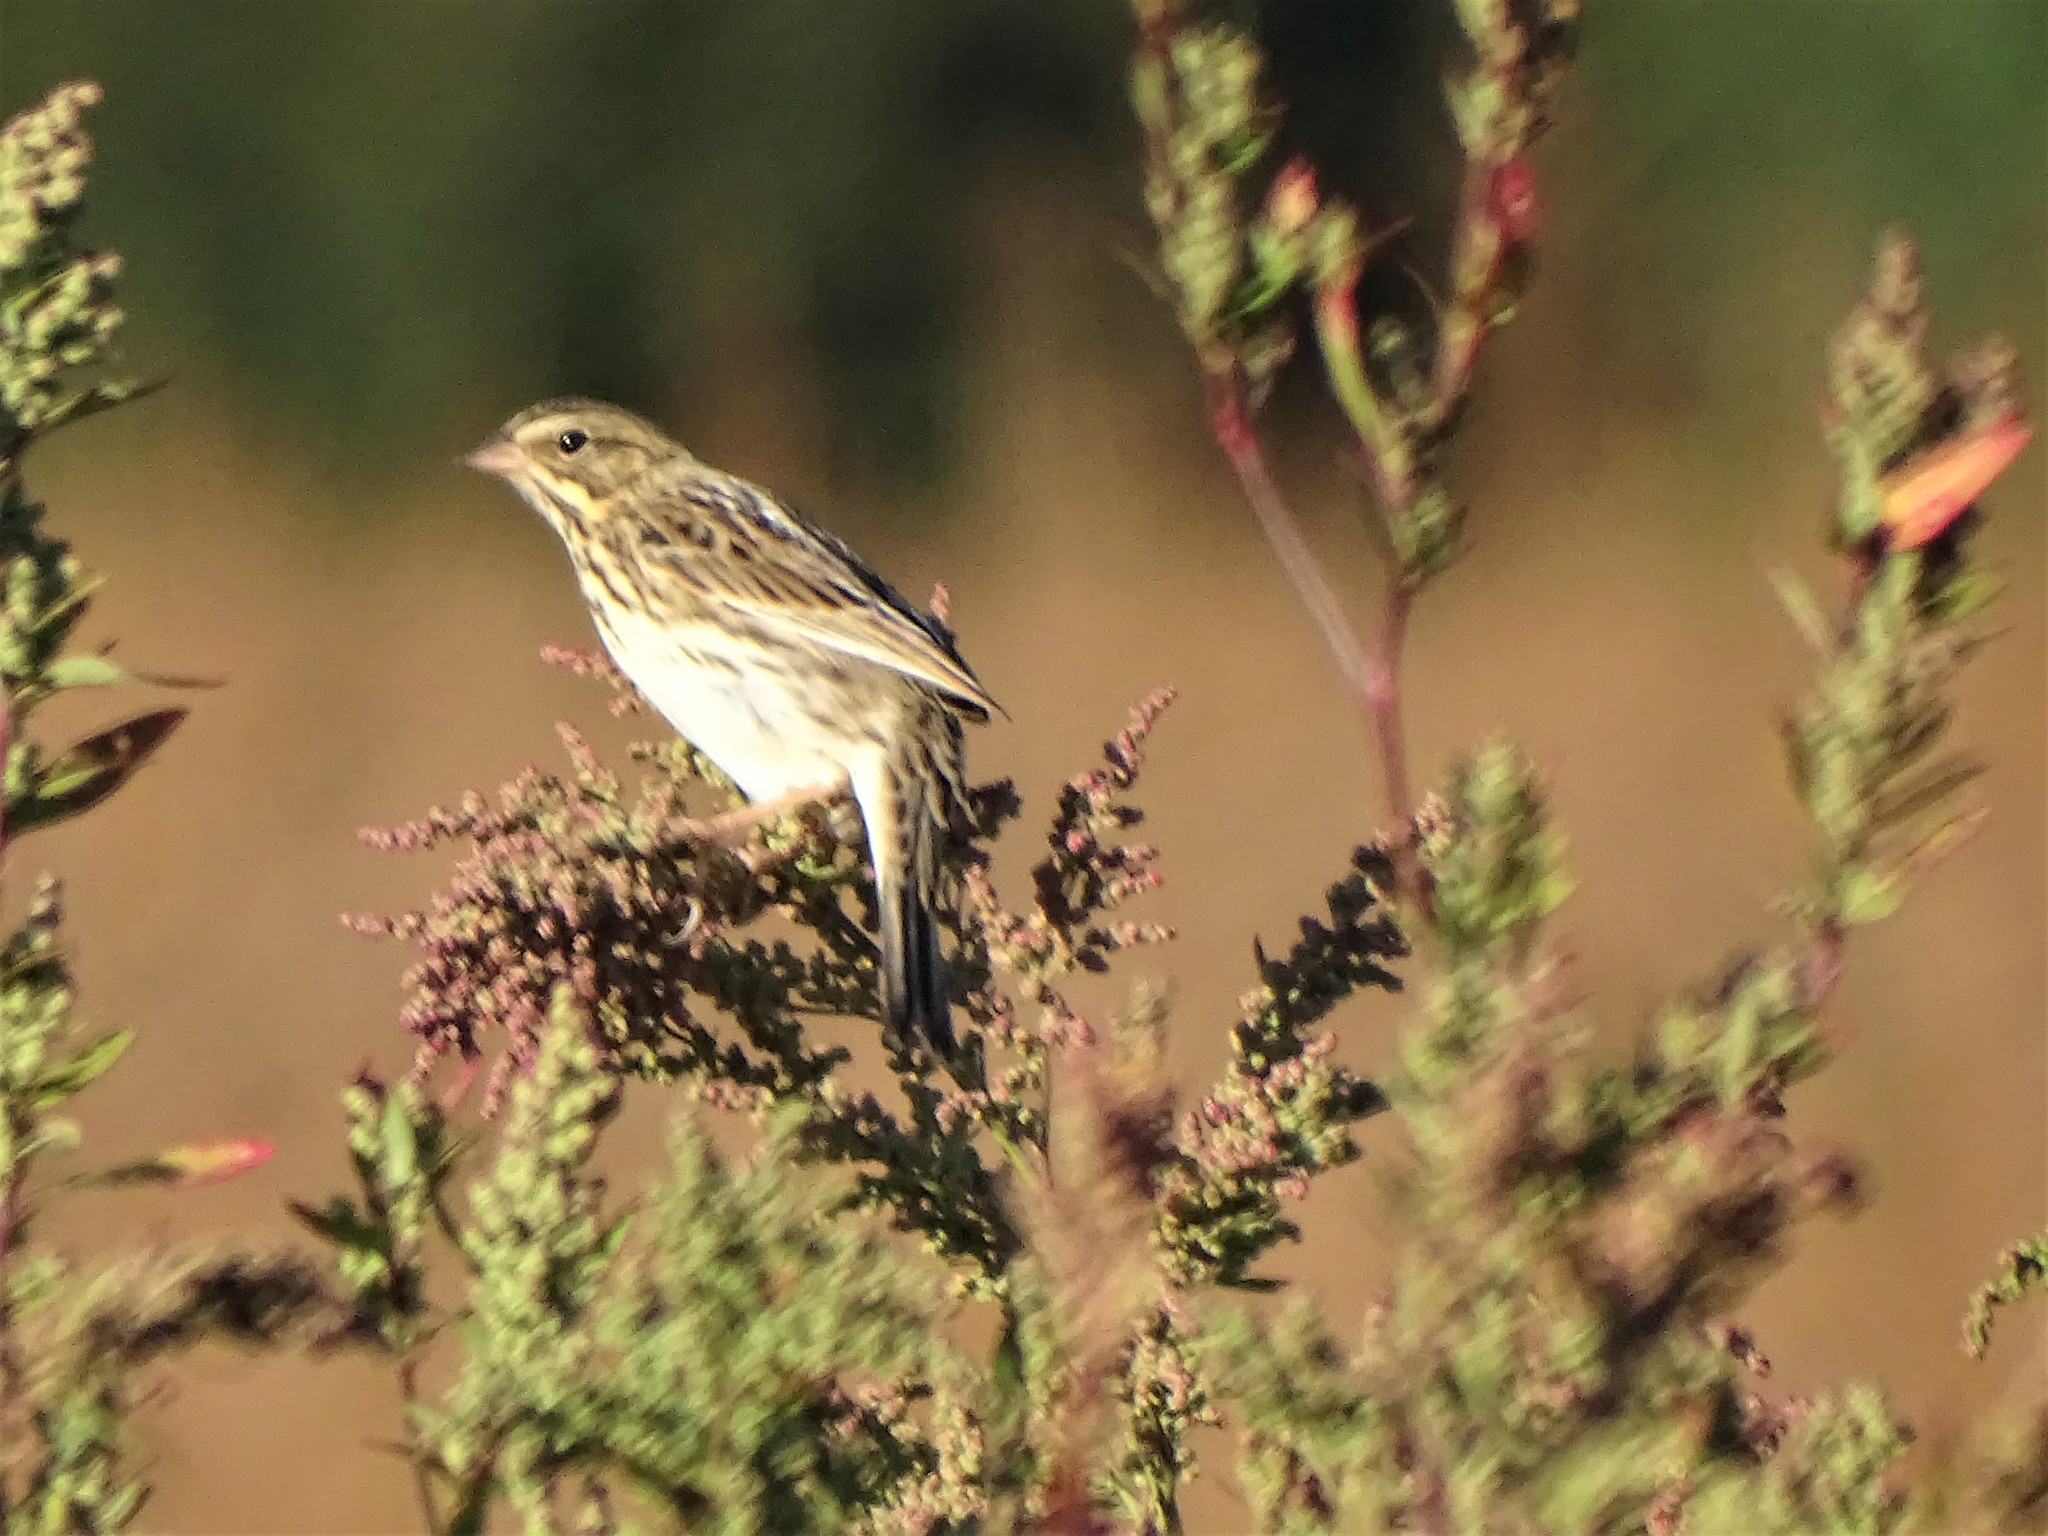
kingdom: Animalia
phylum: Chordata
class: Aves
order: Passeriformes
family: Passerellidae
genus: Passerculus
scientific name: Passerculus sandwichensis
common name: Savannah sparrow
